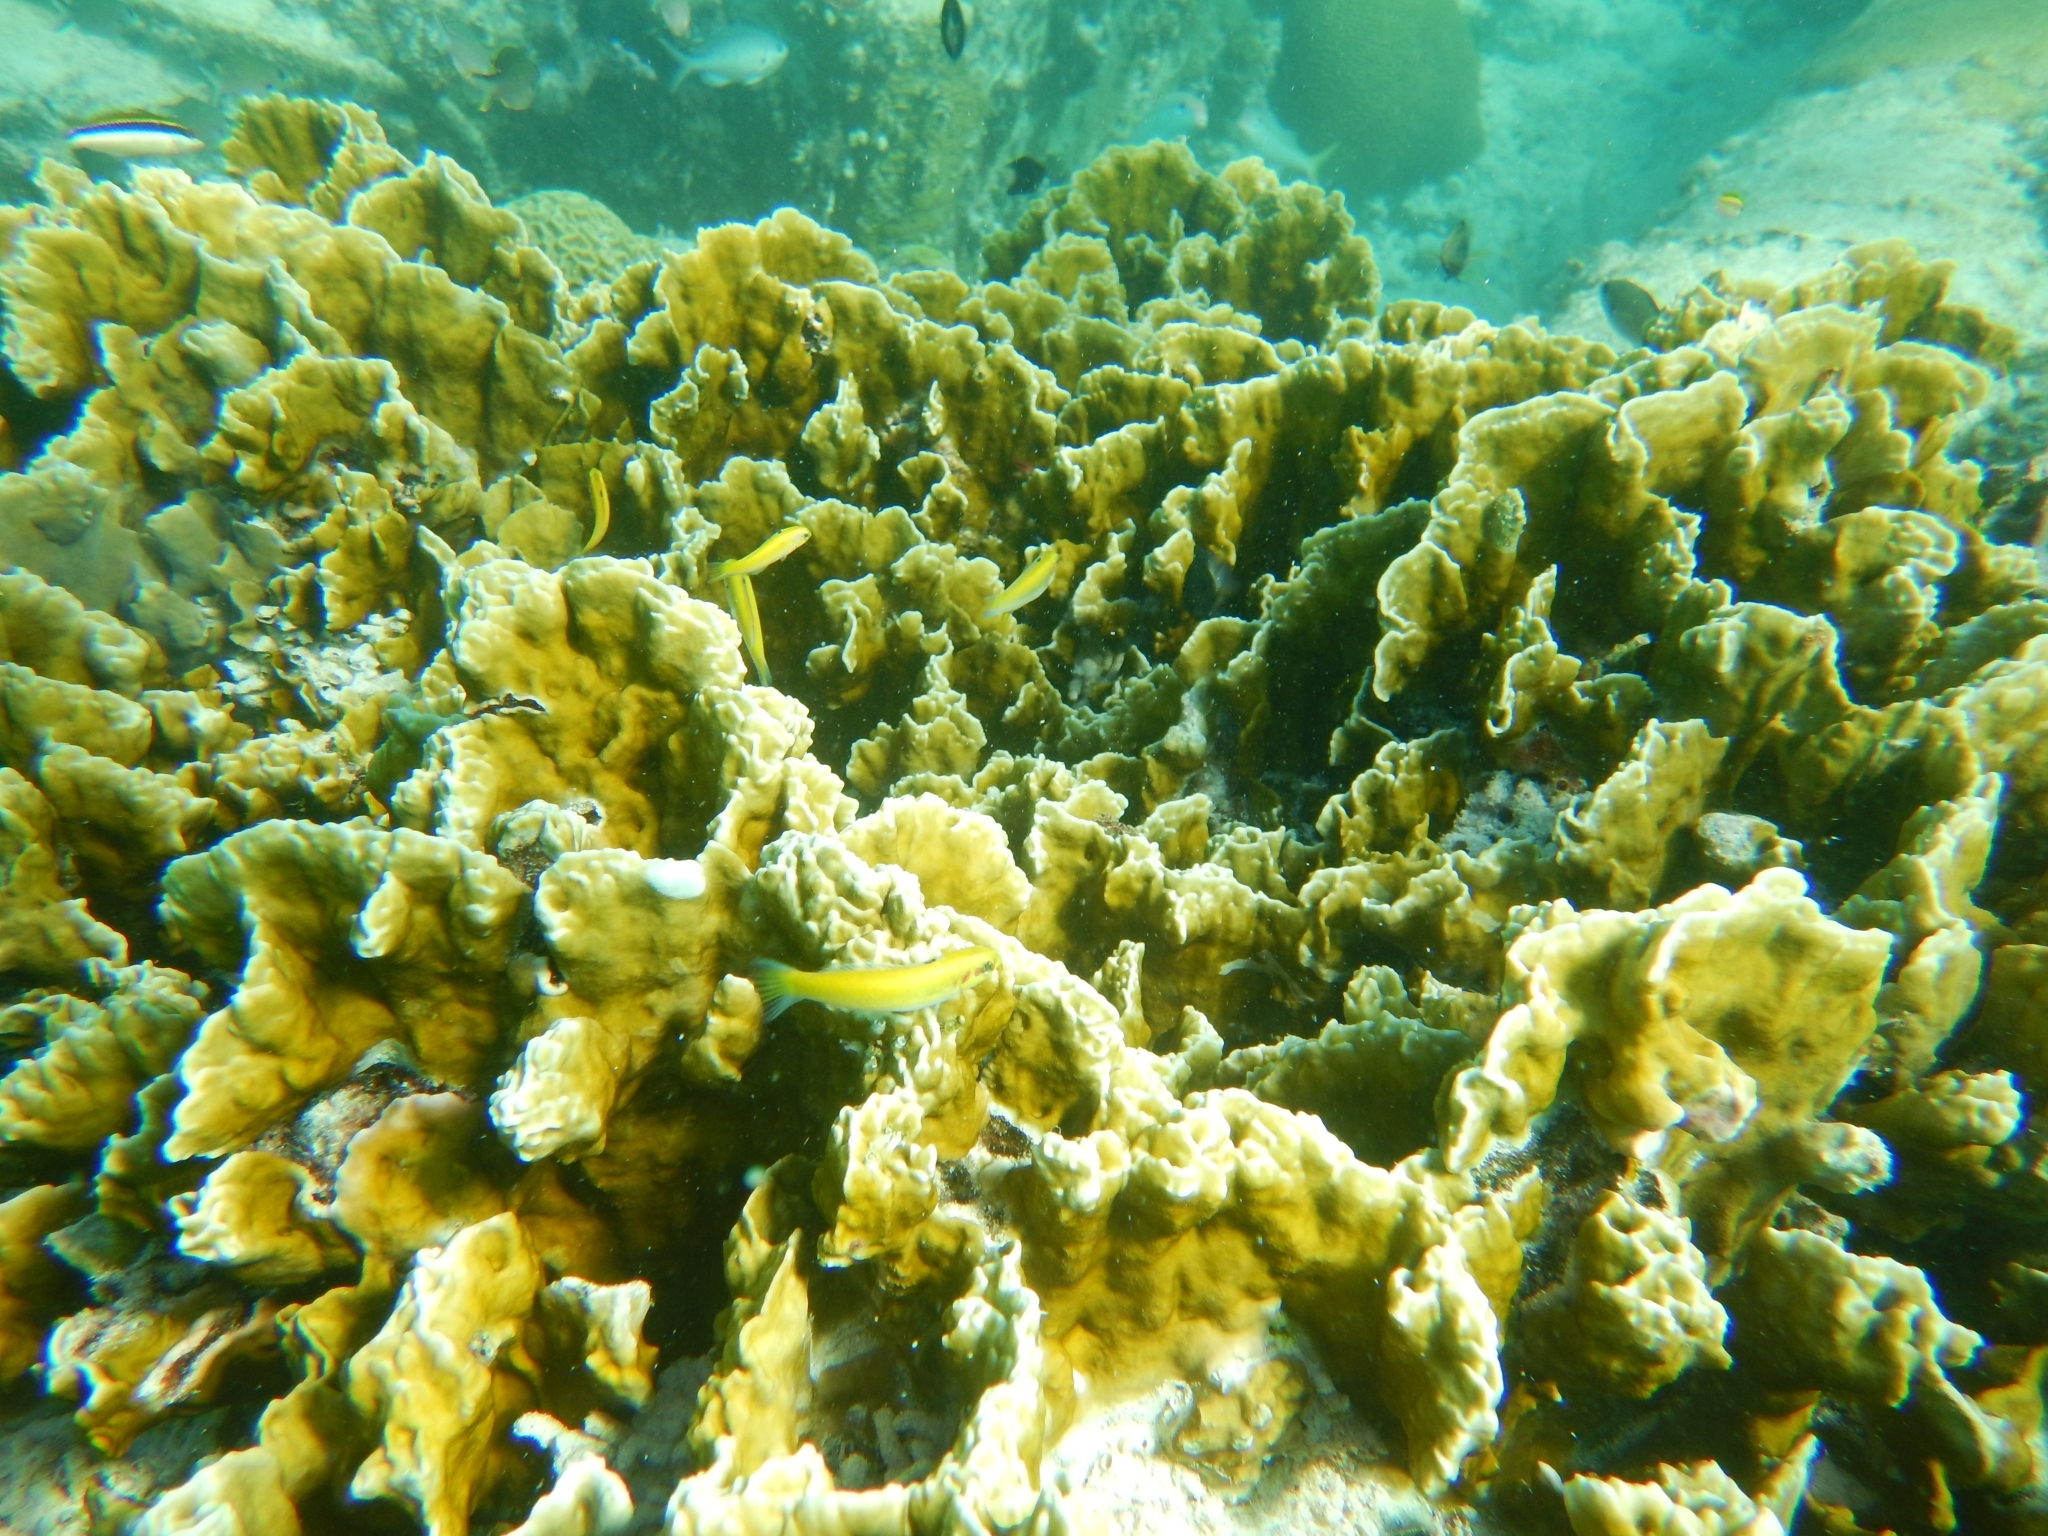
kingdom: Animalia
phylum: Cnidaria
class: Hydrozoa
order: Anthoathecata
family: Milleporidae
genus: Millepora
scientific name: Millepora complanata
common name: Bladed fire coral
